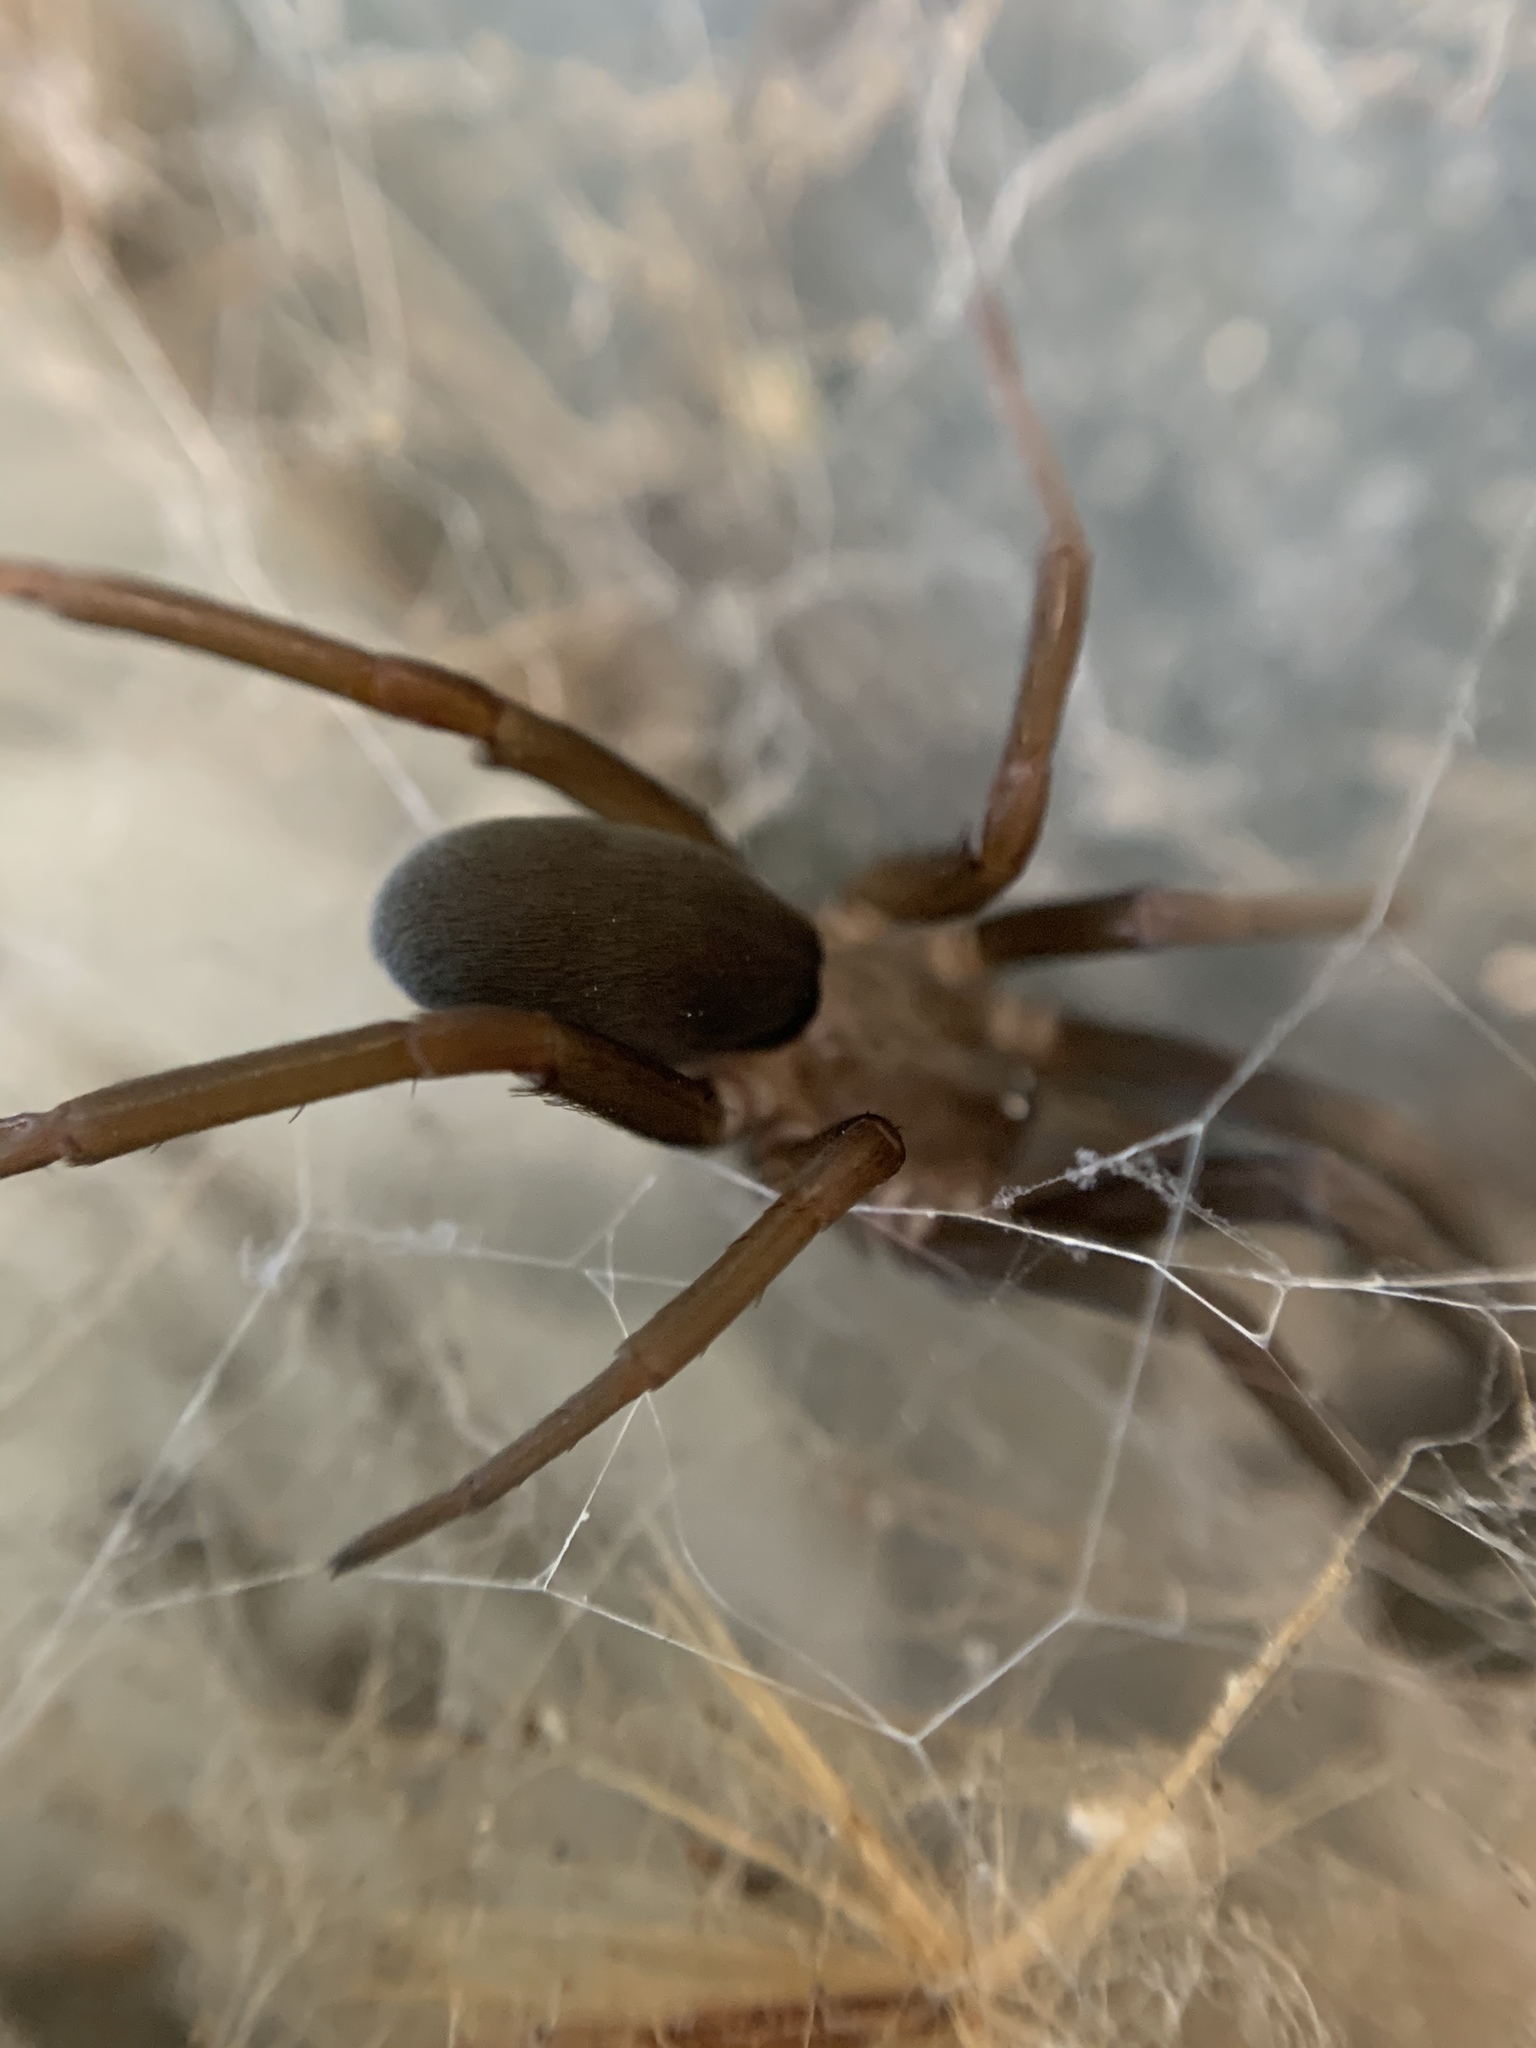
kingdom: Animalia
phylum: Arthropoda
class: Arachnida
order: Araneae
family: Filistatidae
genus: Kukulcania
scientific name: Kukulcania hibernalis
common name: Crevice weaver
